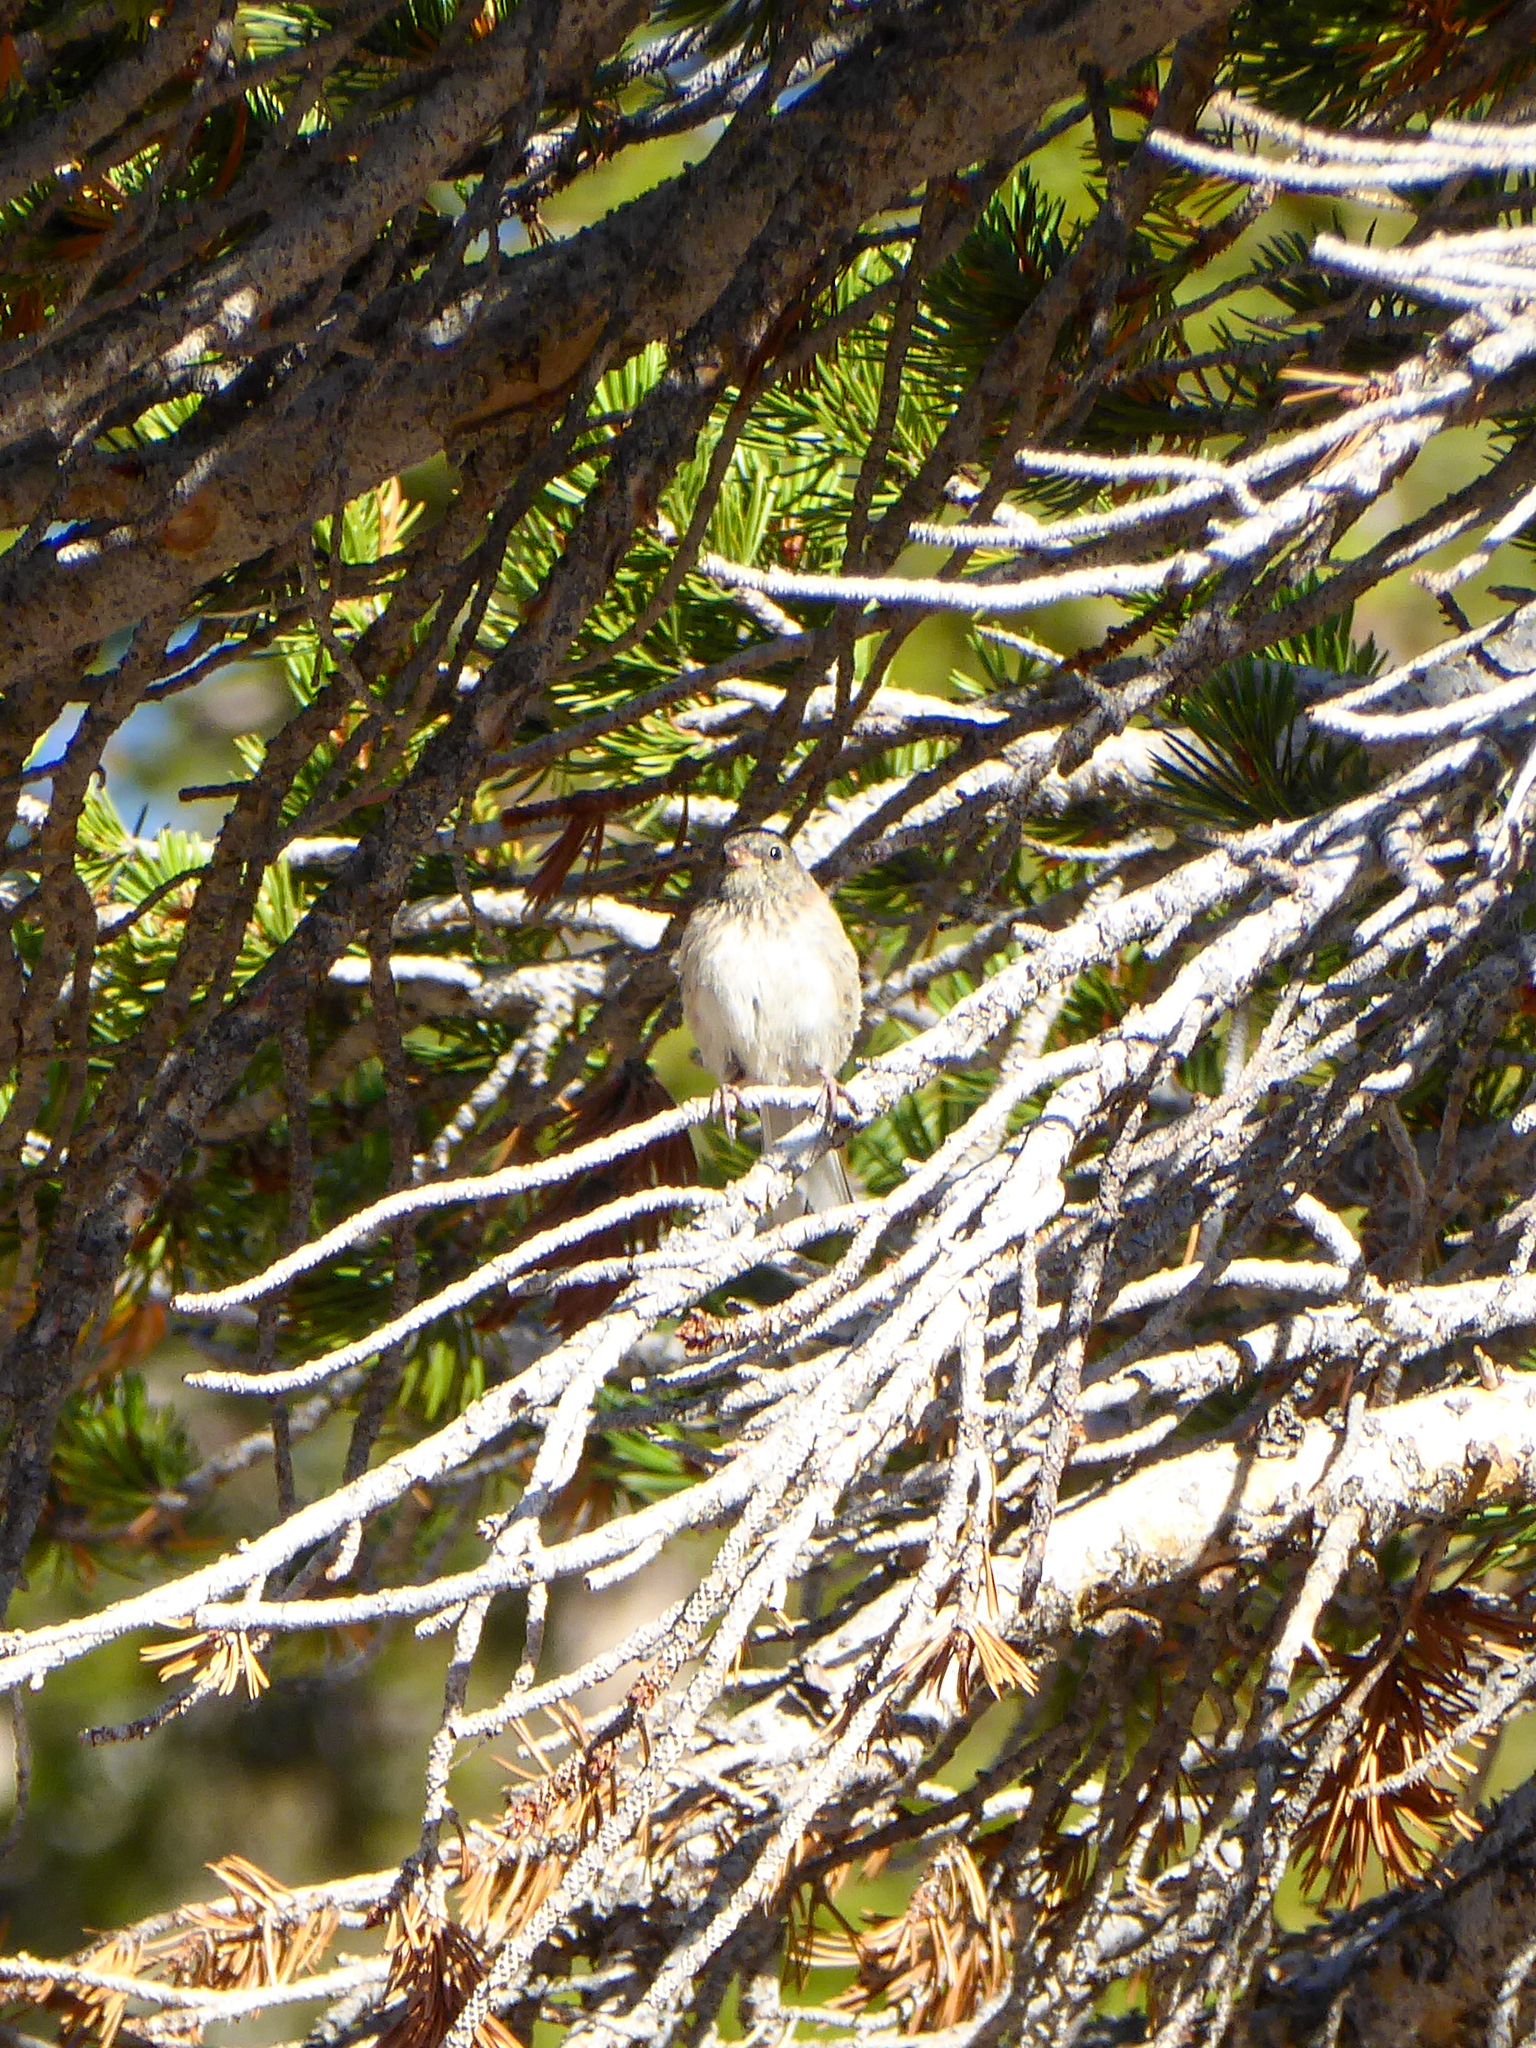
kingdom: Animalia
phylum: Chordata
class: Aves
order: Passeriformes
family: Passerellidae
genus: Junco
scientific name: Junco hyemalis
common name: Dark-eyed junco
